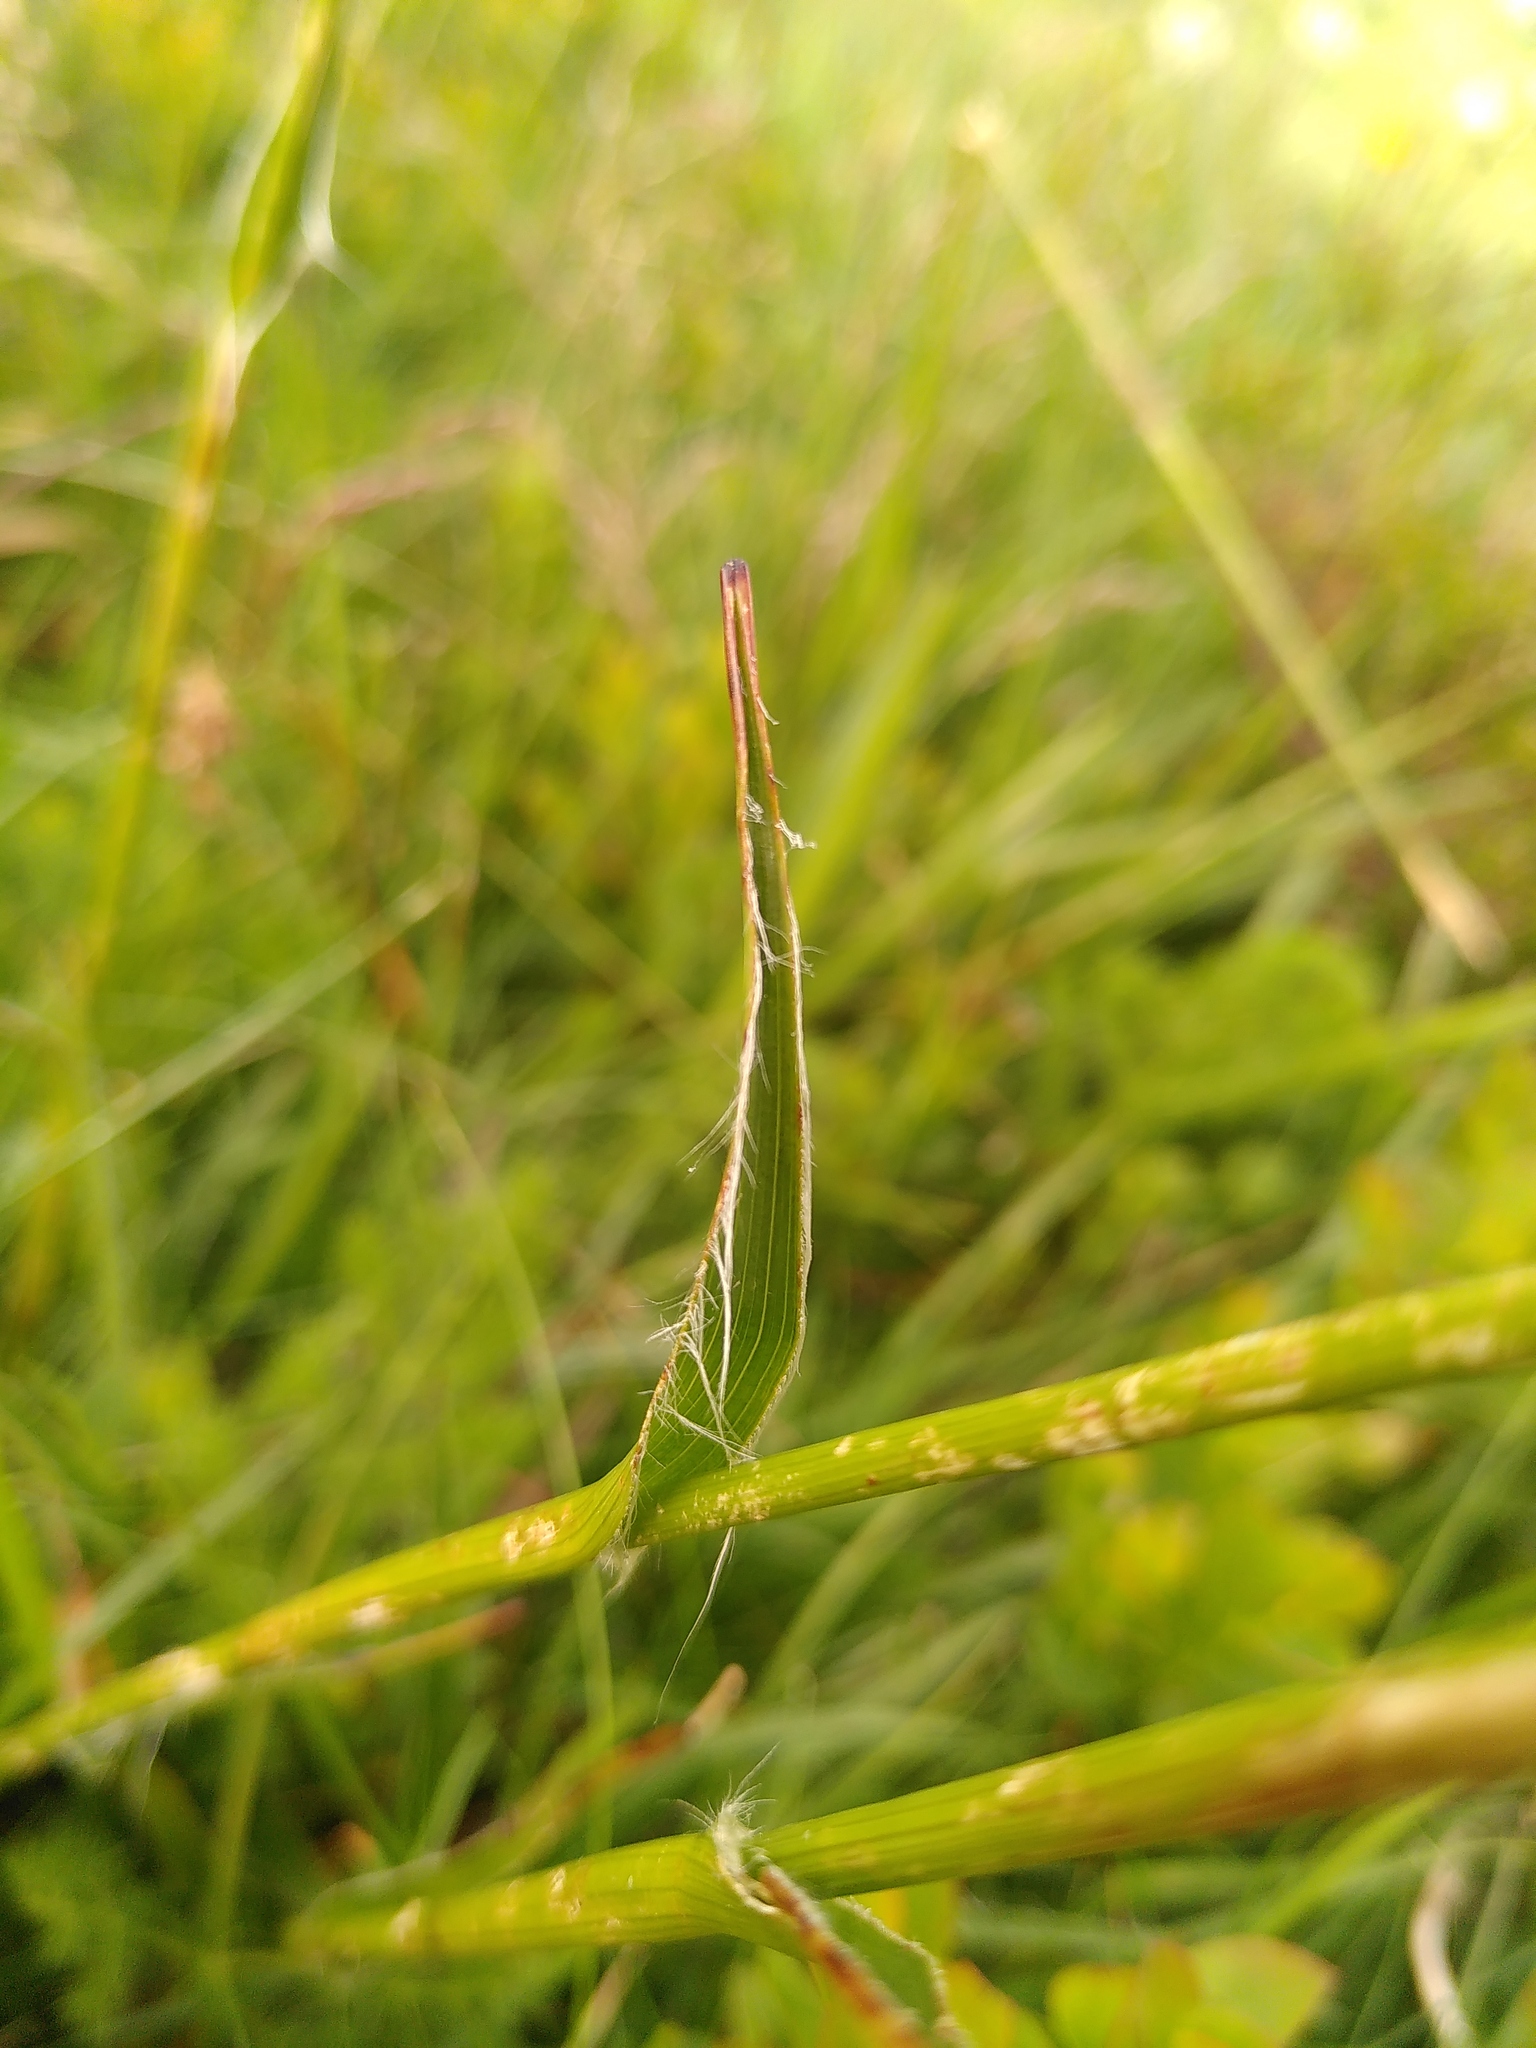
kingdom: Plantae
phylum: Tracheophyta
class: Liliopsida
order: Poales
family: Juncaceae
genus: Luzula
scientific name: Luzula sylvatica
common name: Great wood-rush
